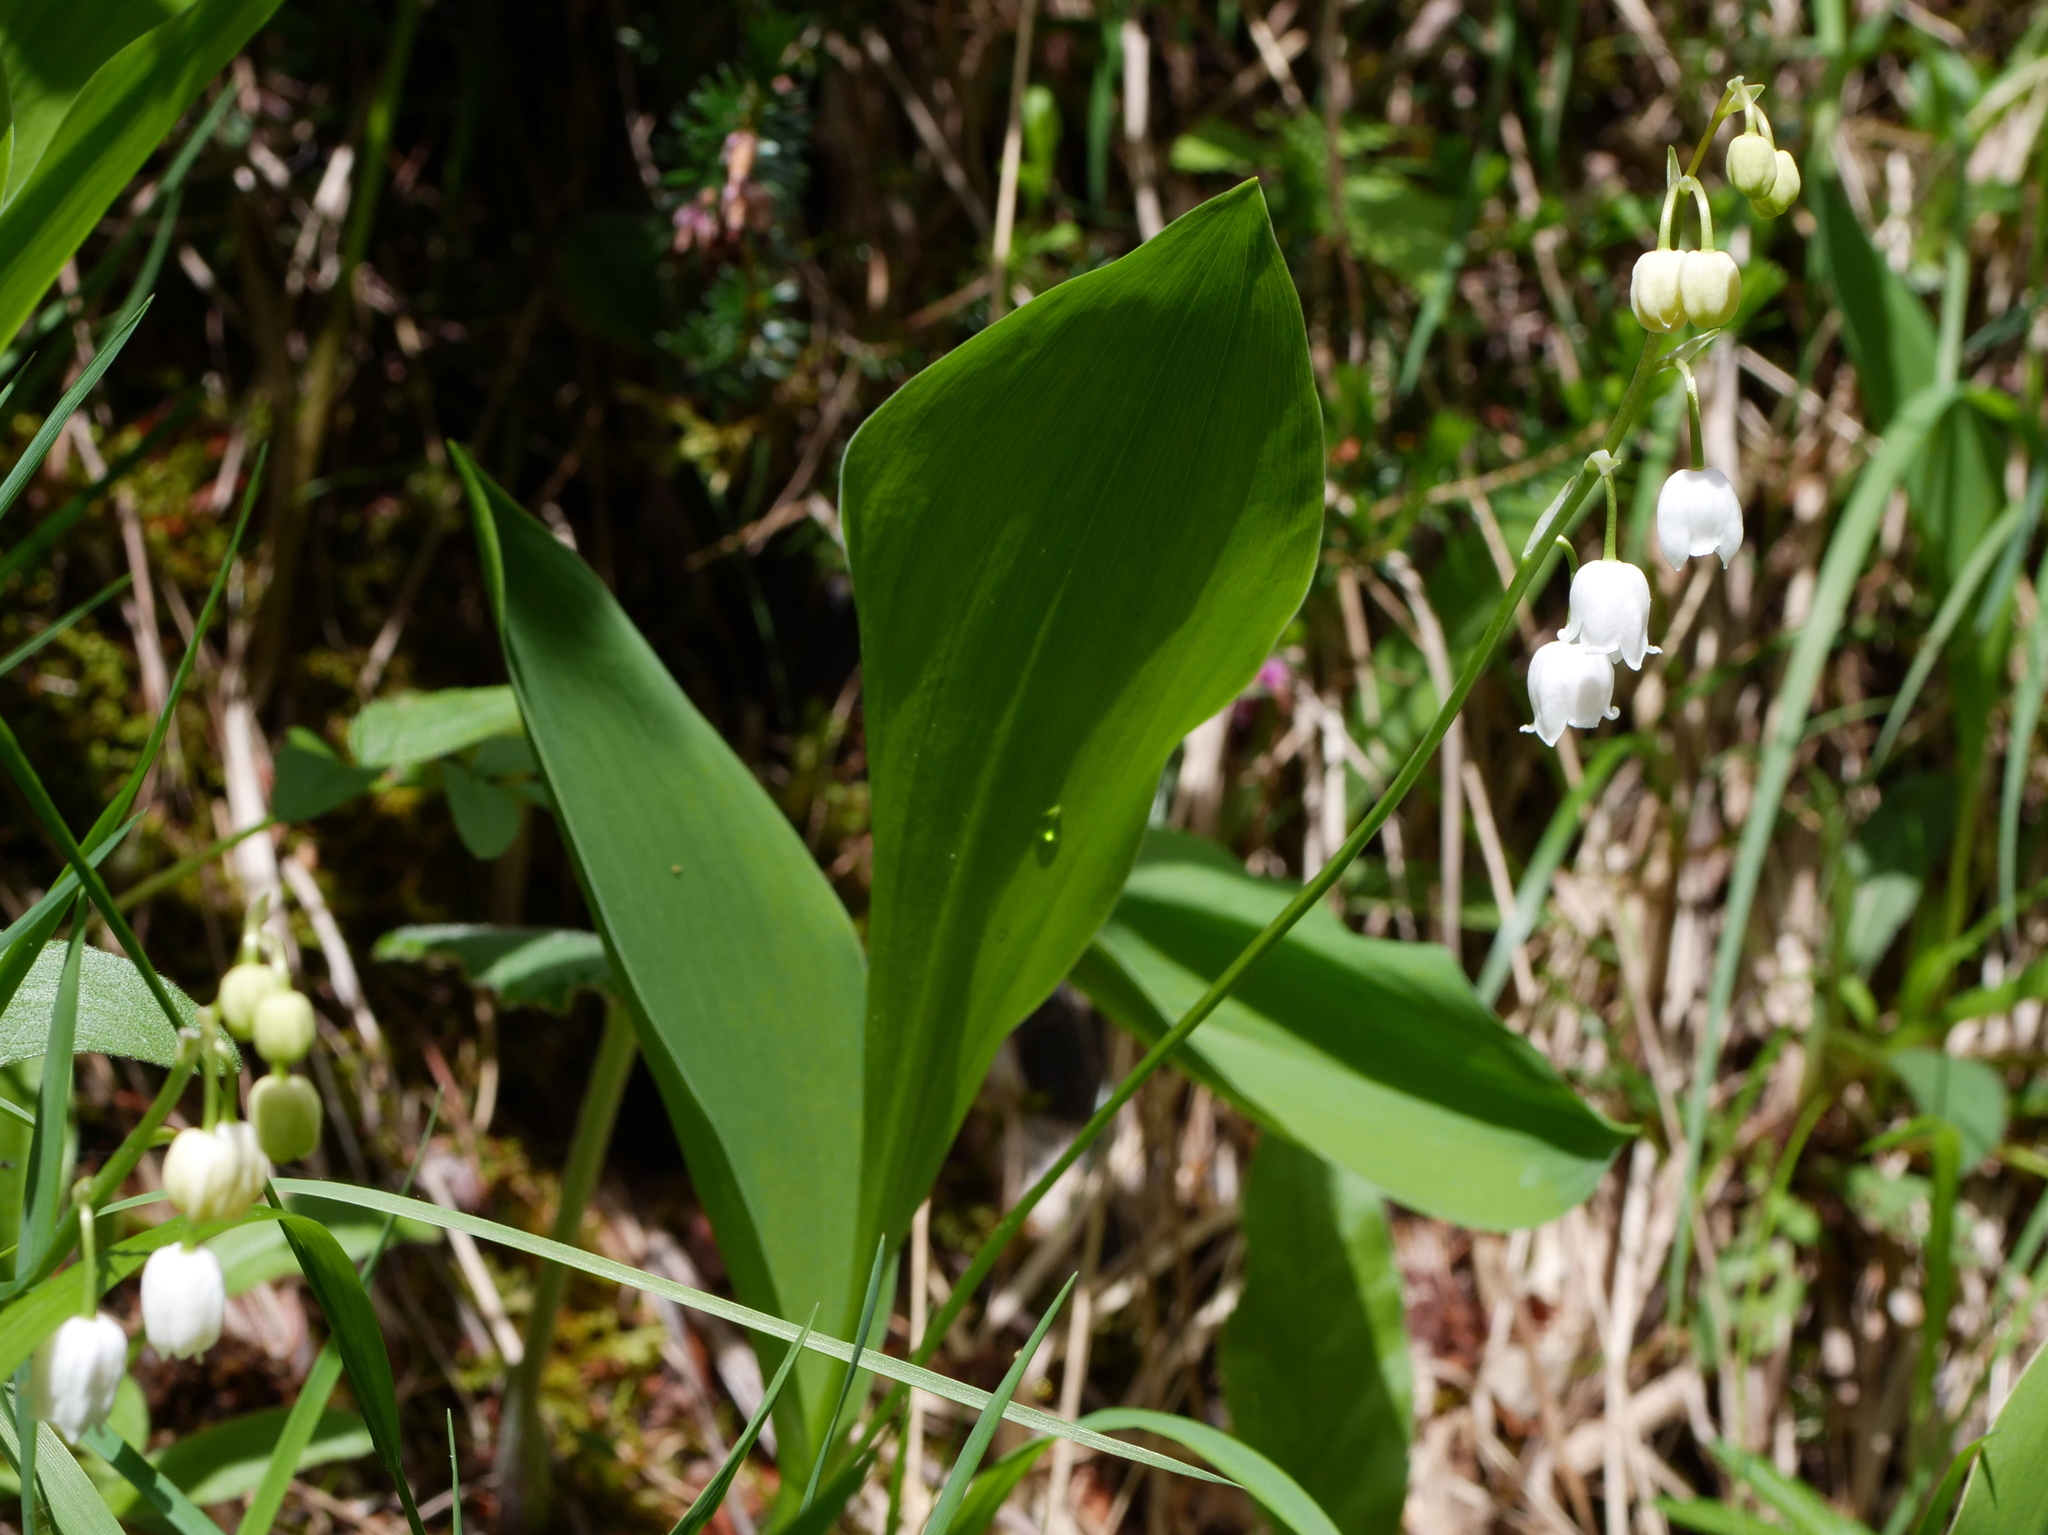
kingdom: Plantae
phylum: Tracheophyta
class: Liliopsida
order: Asparagales
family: Asparagaceae
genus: Convallaria
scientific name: Convallaria majalis
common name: Lily-of-the-valley
